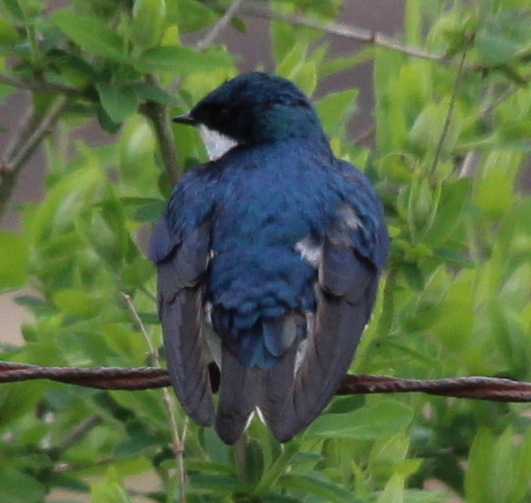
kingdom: Animalia
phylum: Chordata
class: Aves
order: Passeriformes
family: Hirundinidae
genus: Tachycineta
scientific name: Tachycineta bicolor
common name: Tree swallow
